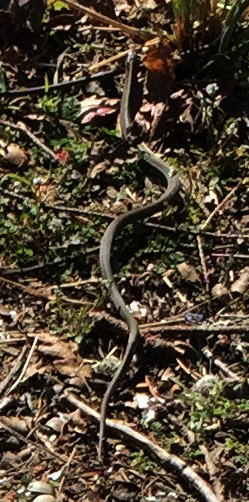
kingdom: Animalia
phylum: Chordata
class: Squamata
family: Colubridae
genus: Thamnophis
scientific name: Thamnophis ordinoides
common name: Northwestern garter snake
